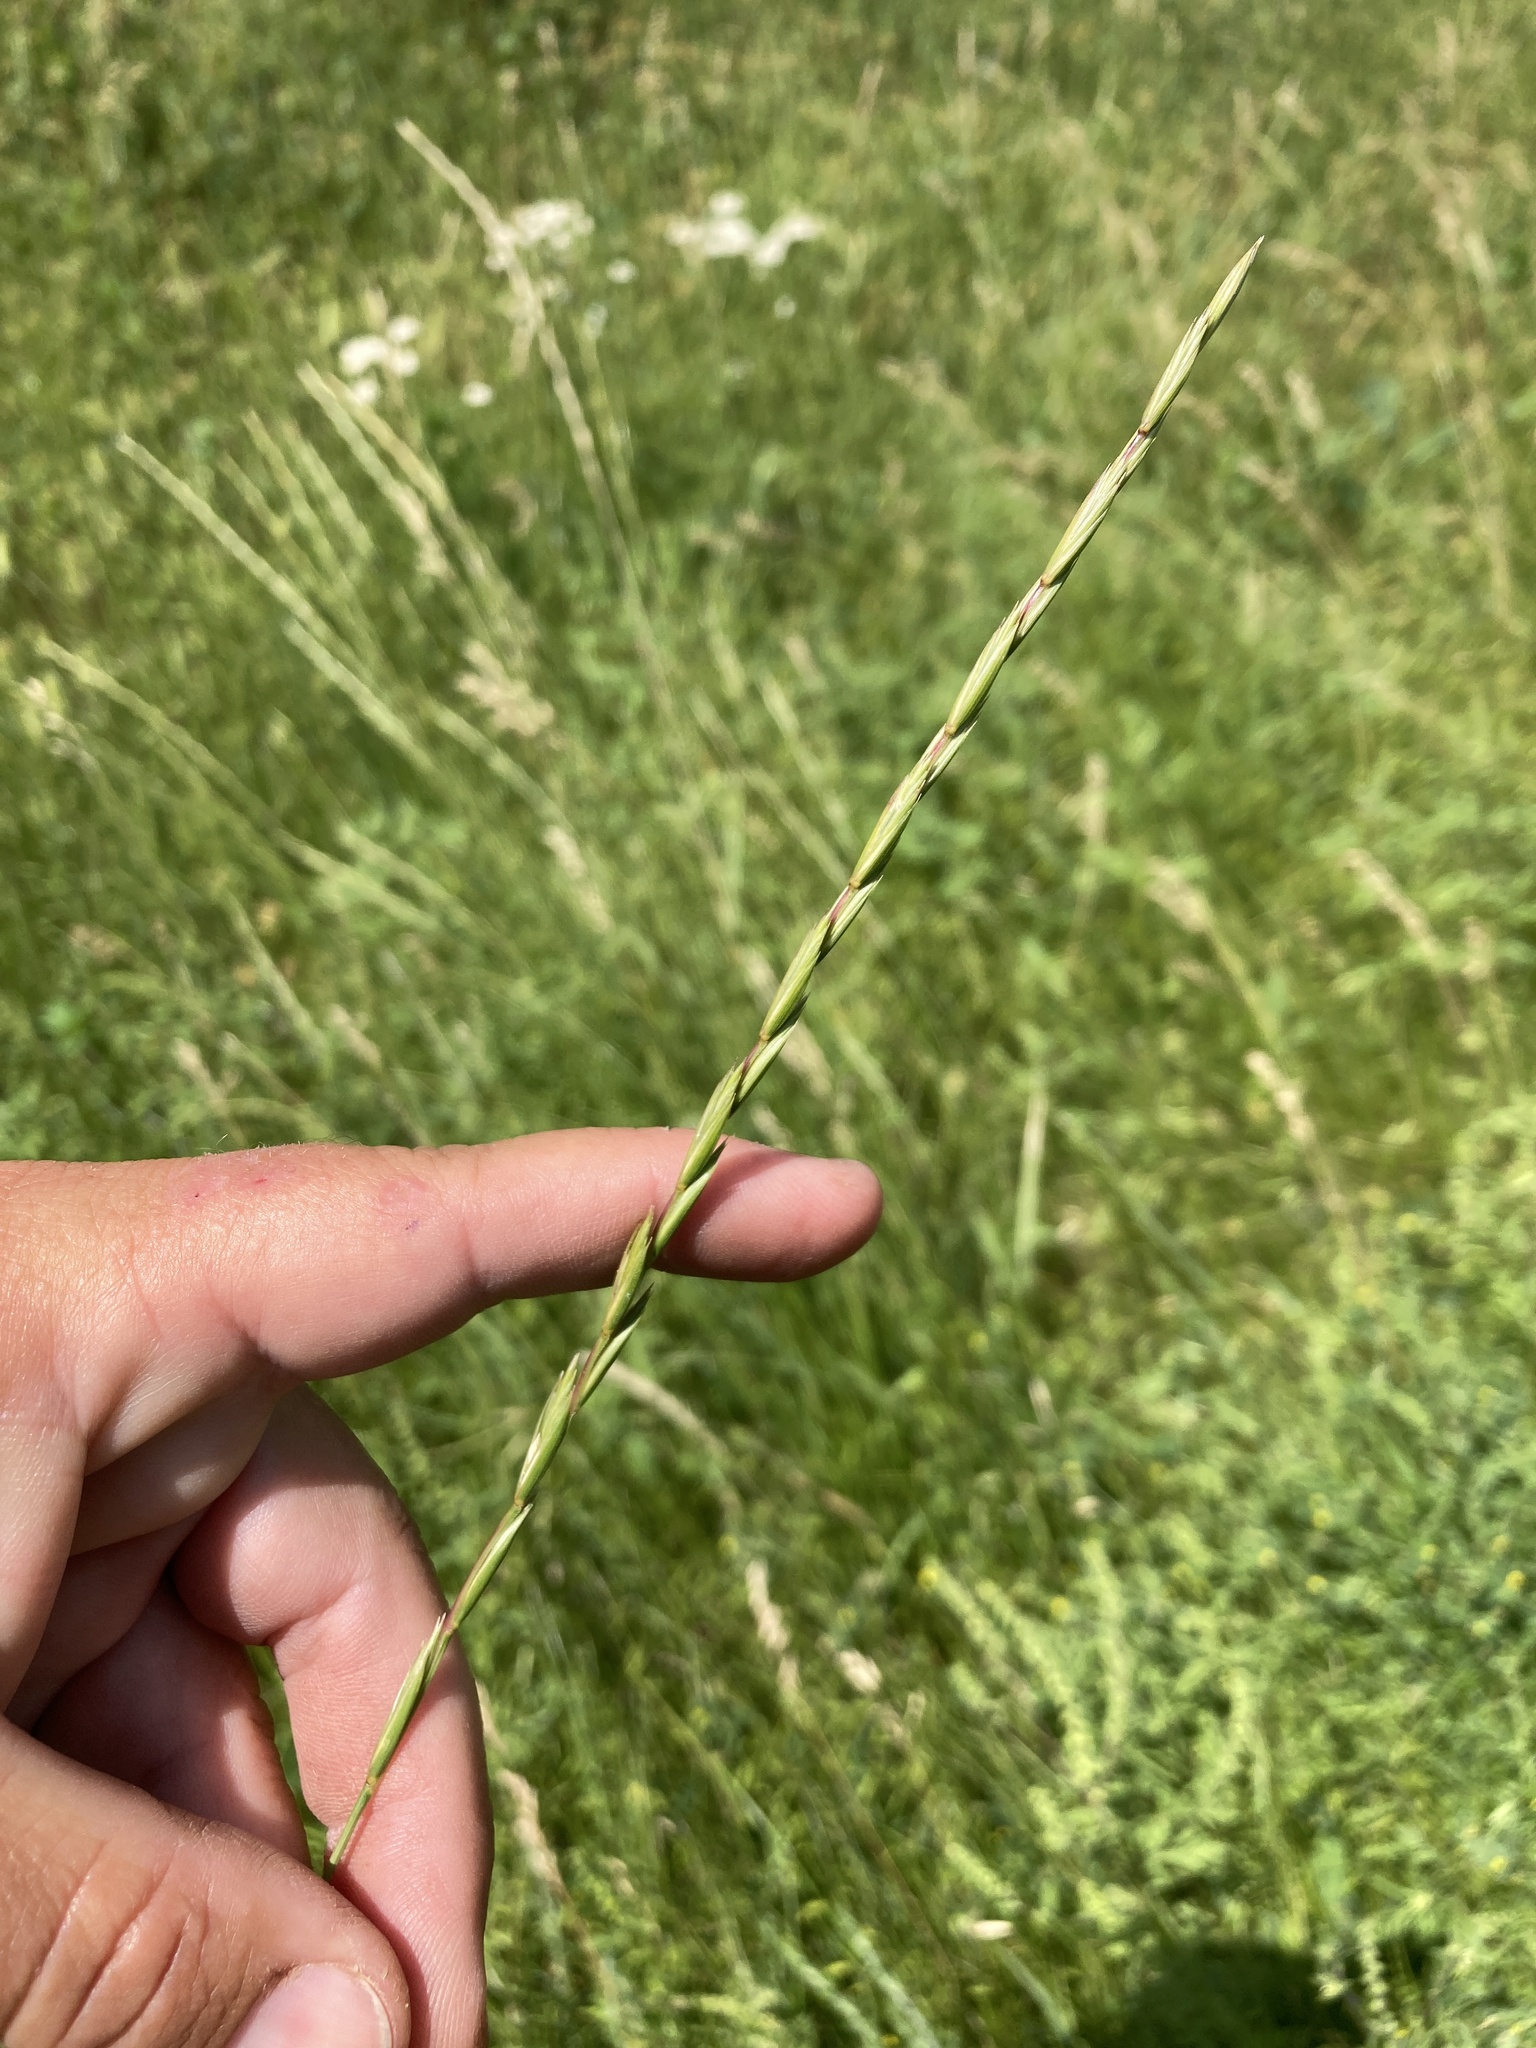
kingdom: Plantae
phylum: Tracheophyta
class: Liliopsida
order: Poales
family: Poaceae
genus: Elymus
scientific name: Elymus violaceus
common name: Arctic wheatgrass
